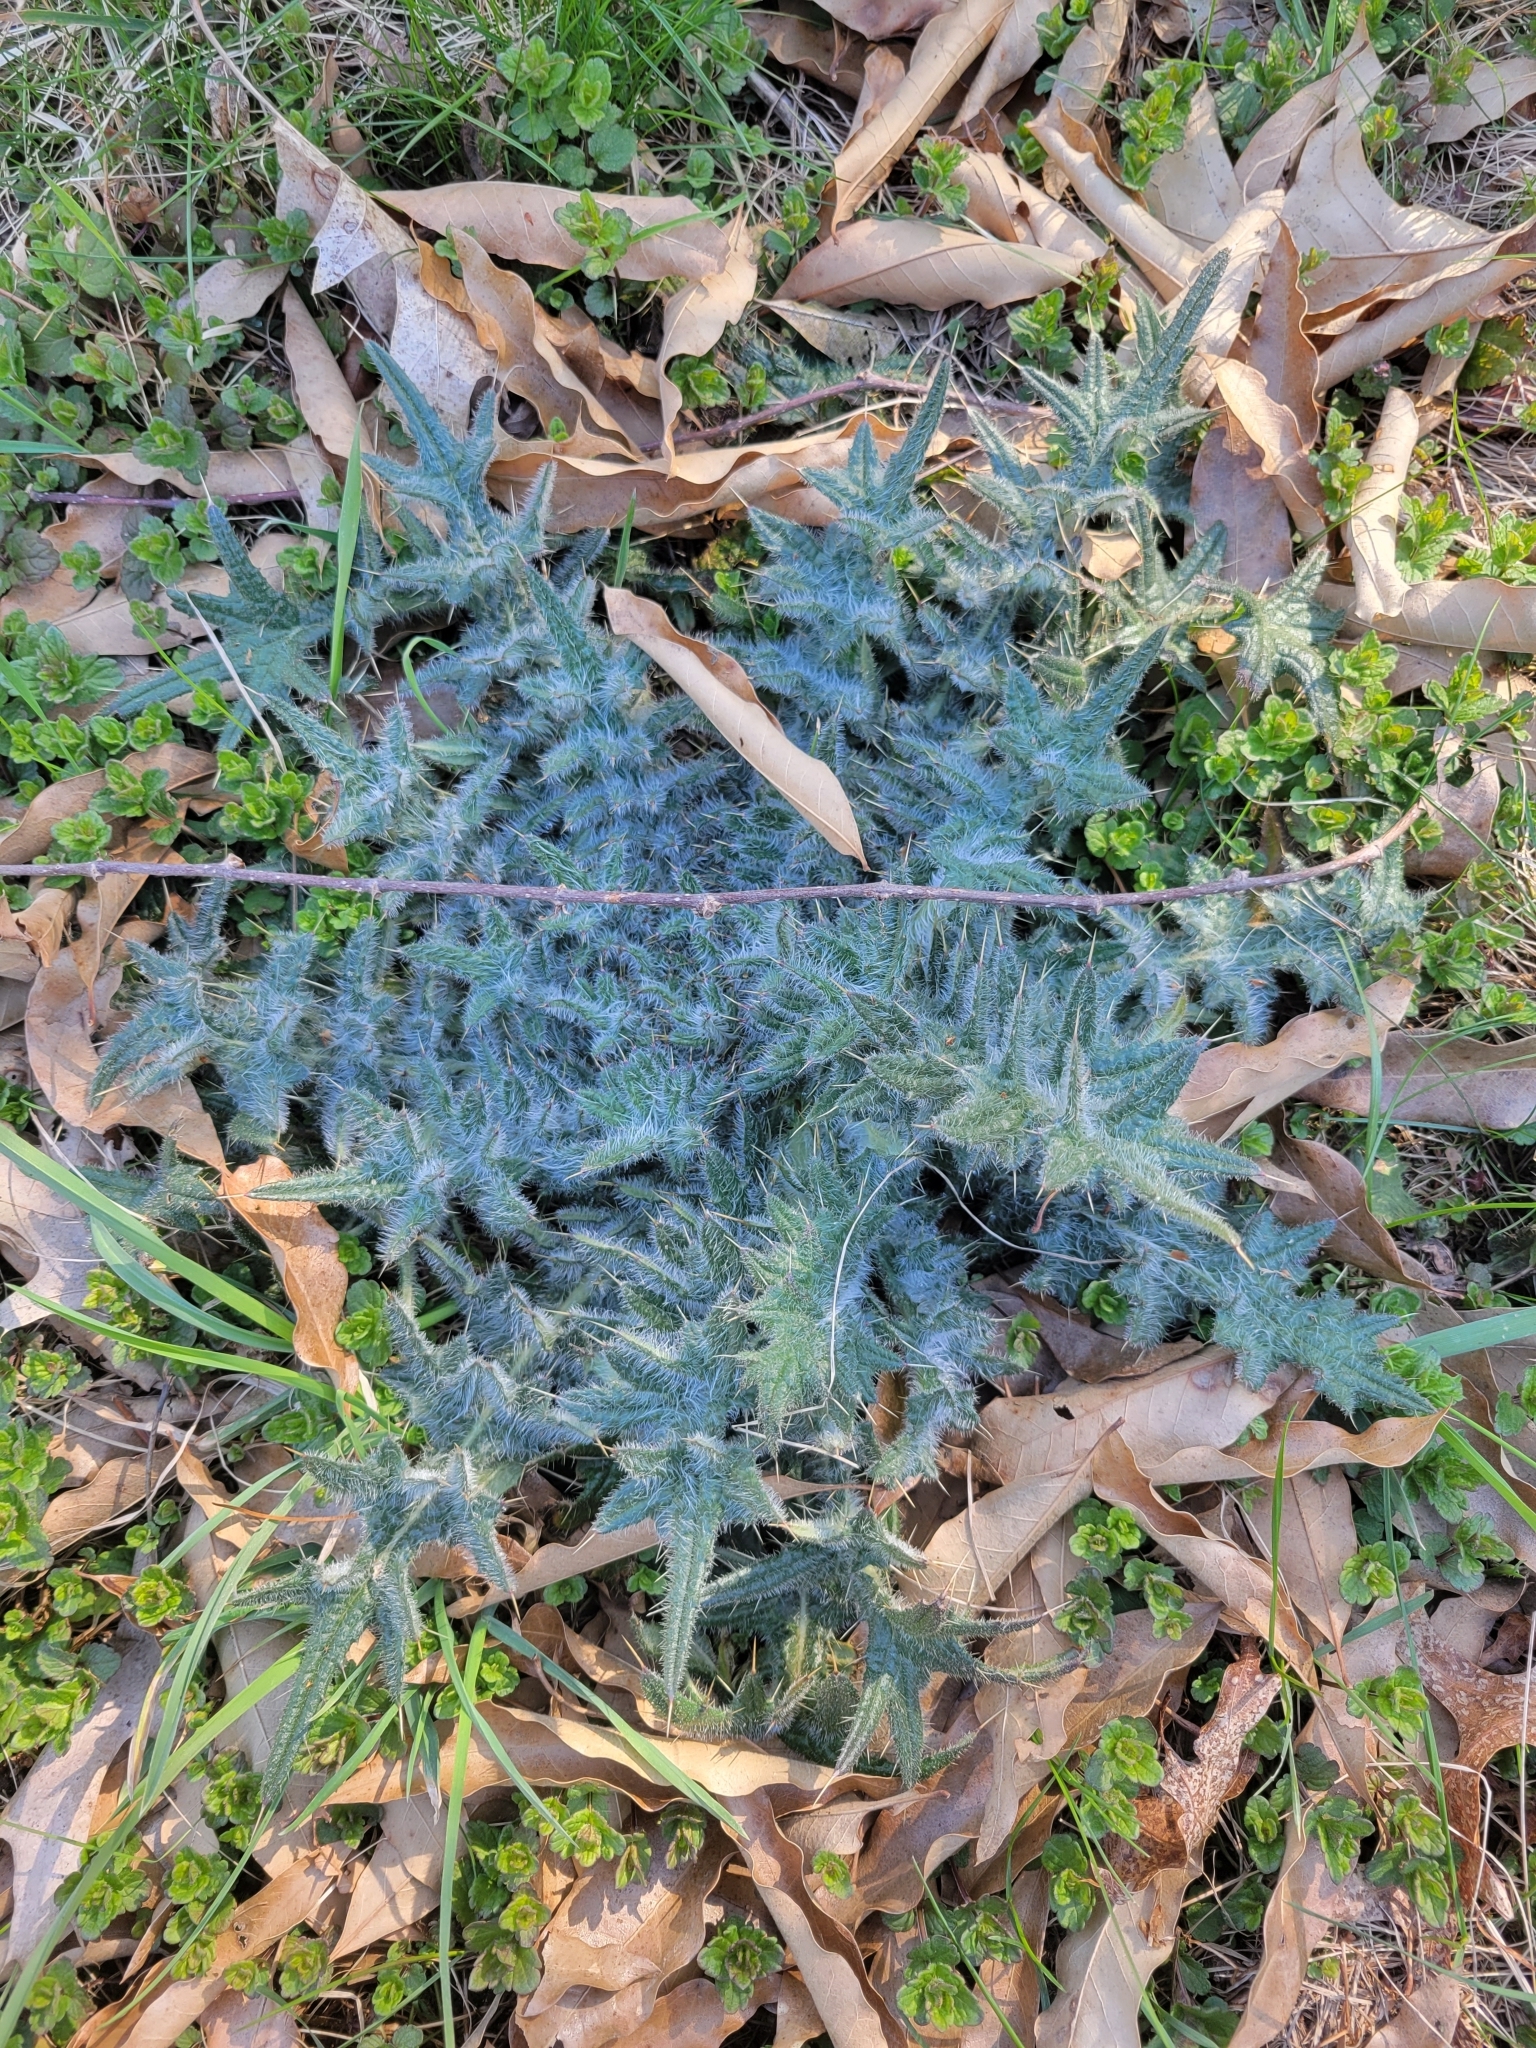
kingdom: Plantae
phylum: Tracheophyta
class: Magnoliopsida
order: Asterales
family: Asteraceae
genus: Cirsium
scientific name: Cirsium vulgare
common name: Bull thistle
